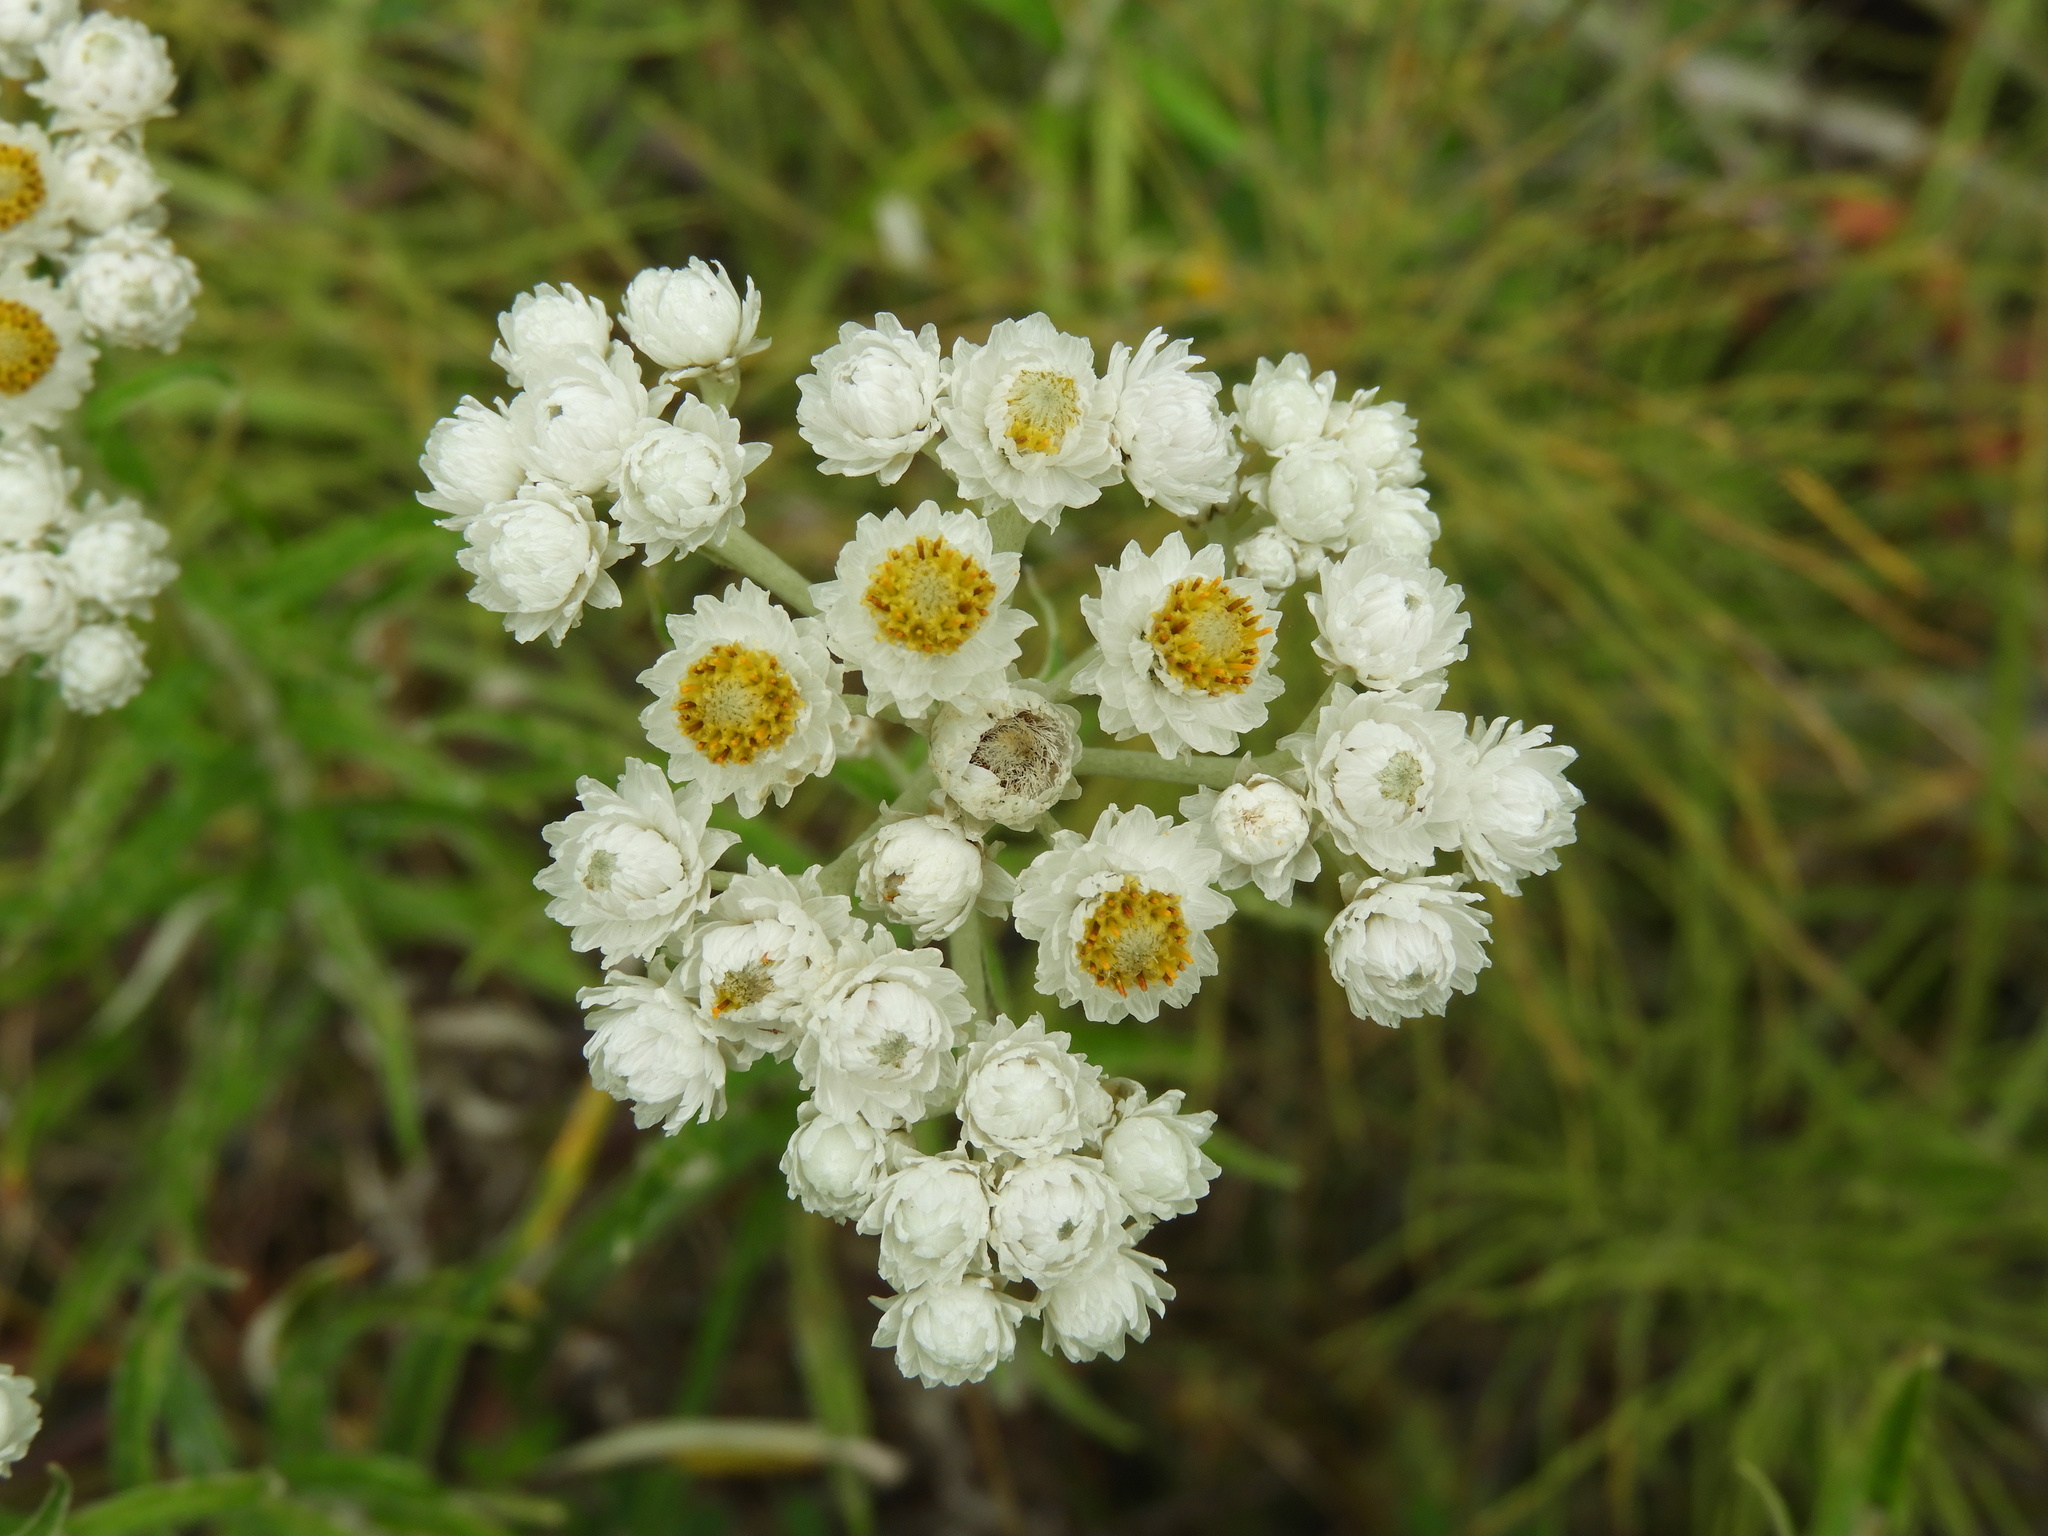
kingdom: Plantae
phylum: Tracheophyta
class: Magnoliopsida
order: Asterales
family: Asteraceae
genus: Anaphalis
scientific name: Anaphalis margaritacea
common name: Pearly everlasting
